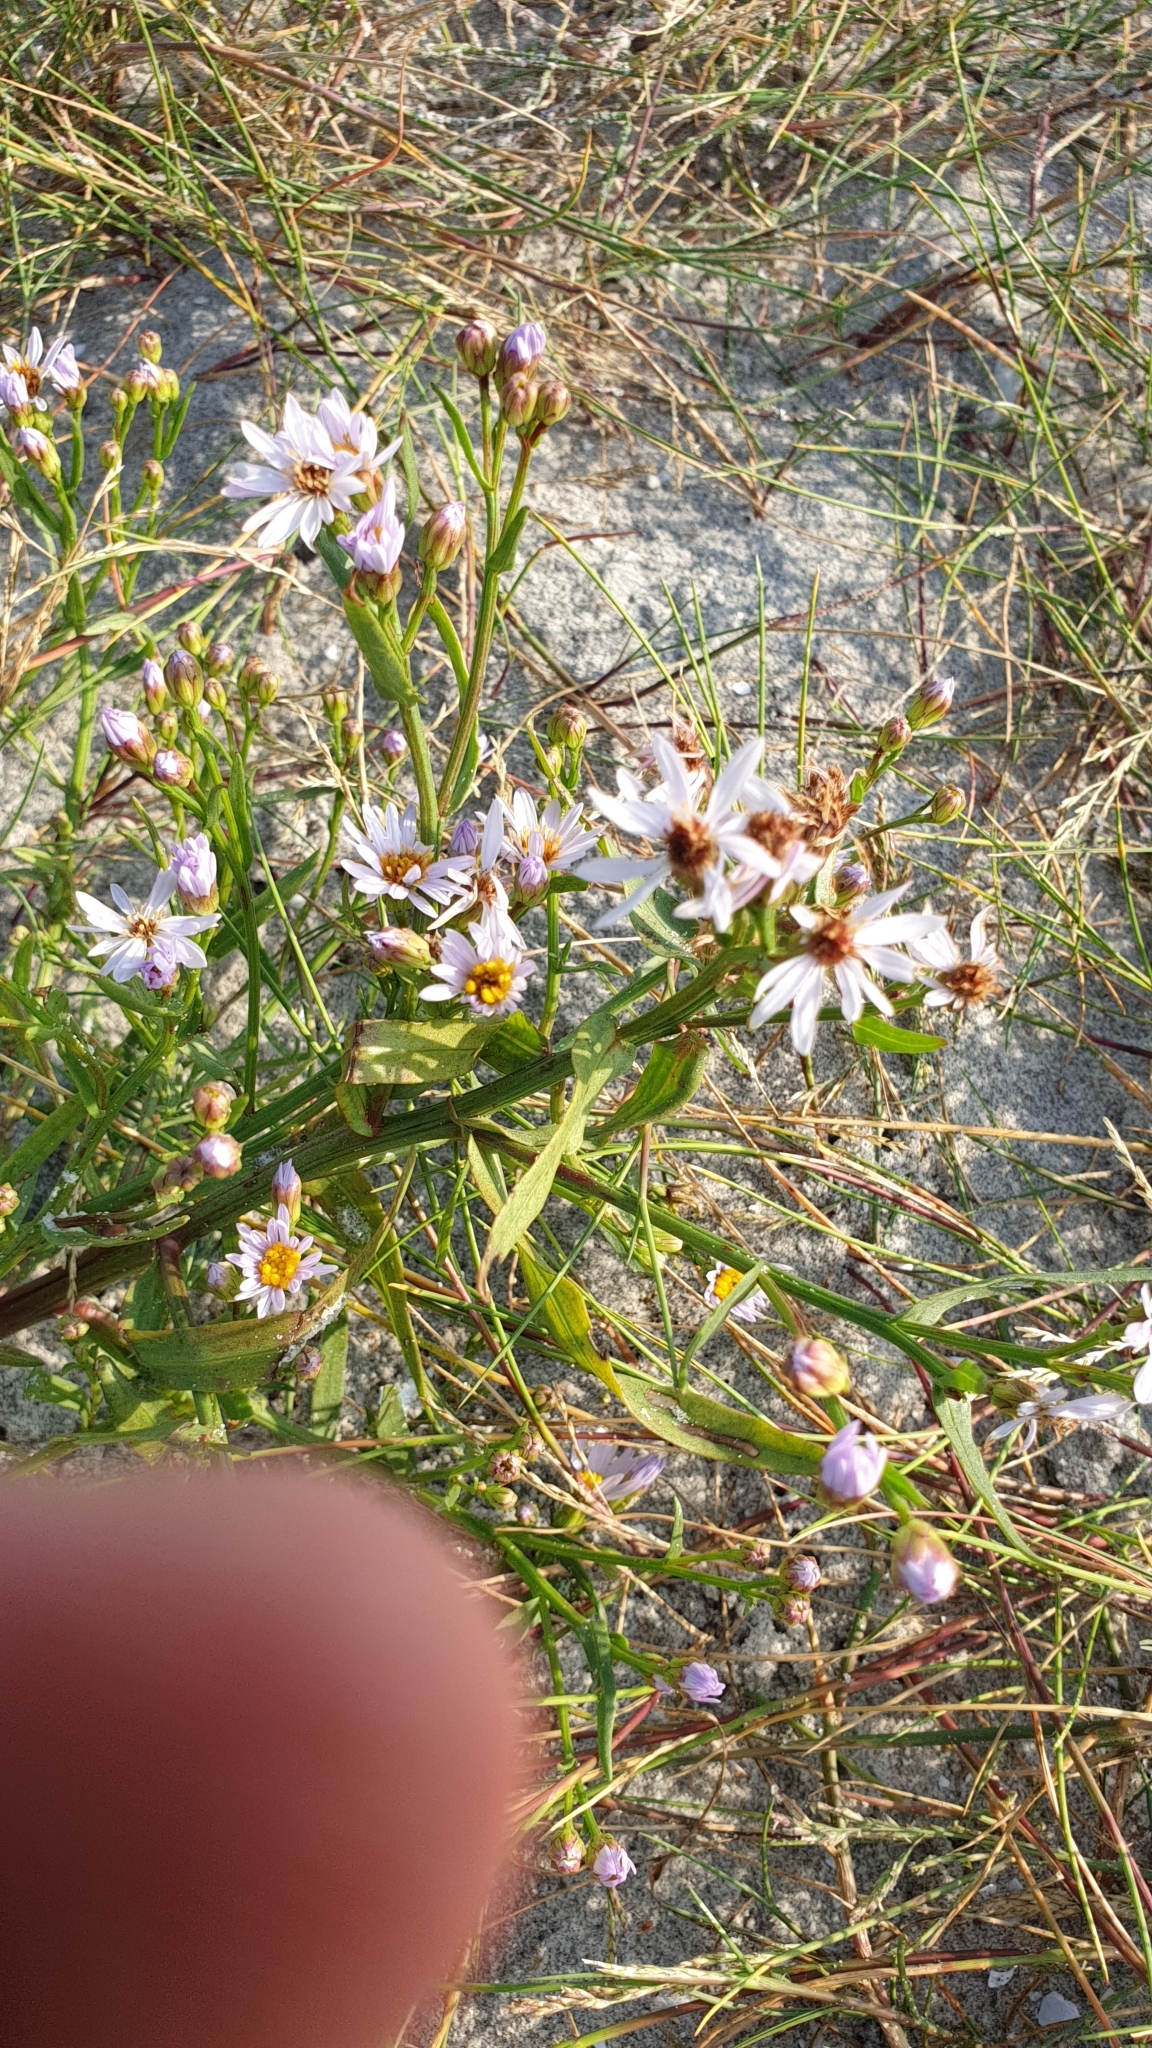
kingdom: Plantae
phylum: Tracheophyta
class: Magnoliopsida
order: Asterales
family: Asteraceae
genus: Tripolium
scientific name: Tripolium pannonicum
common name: Sea aster
